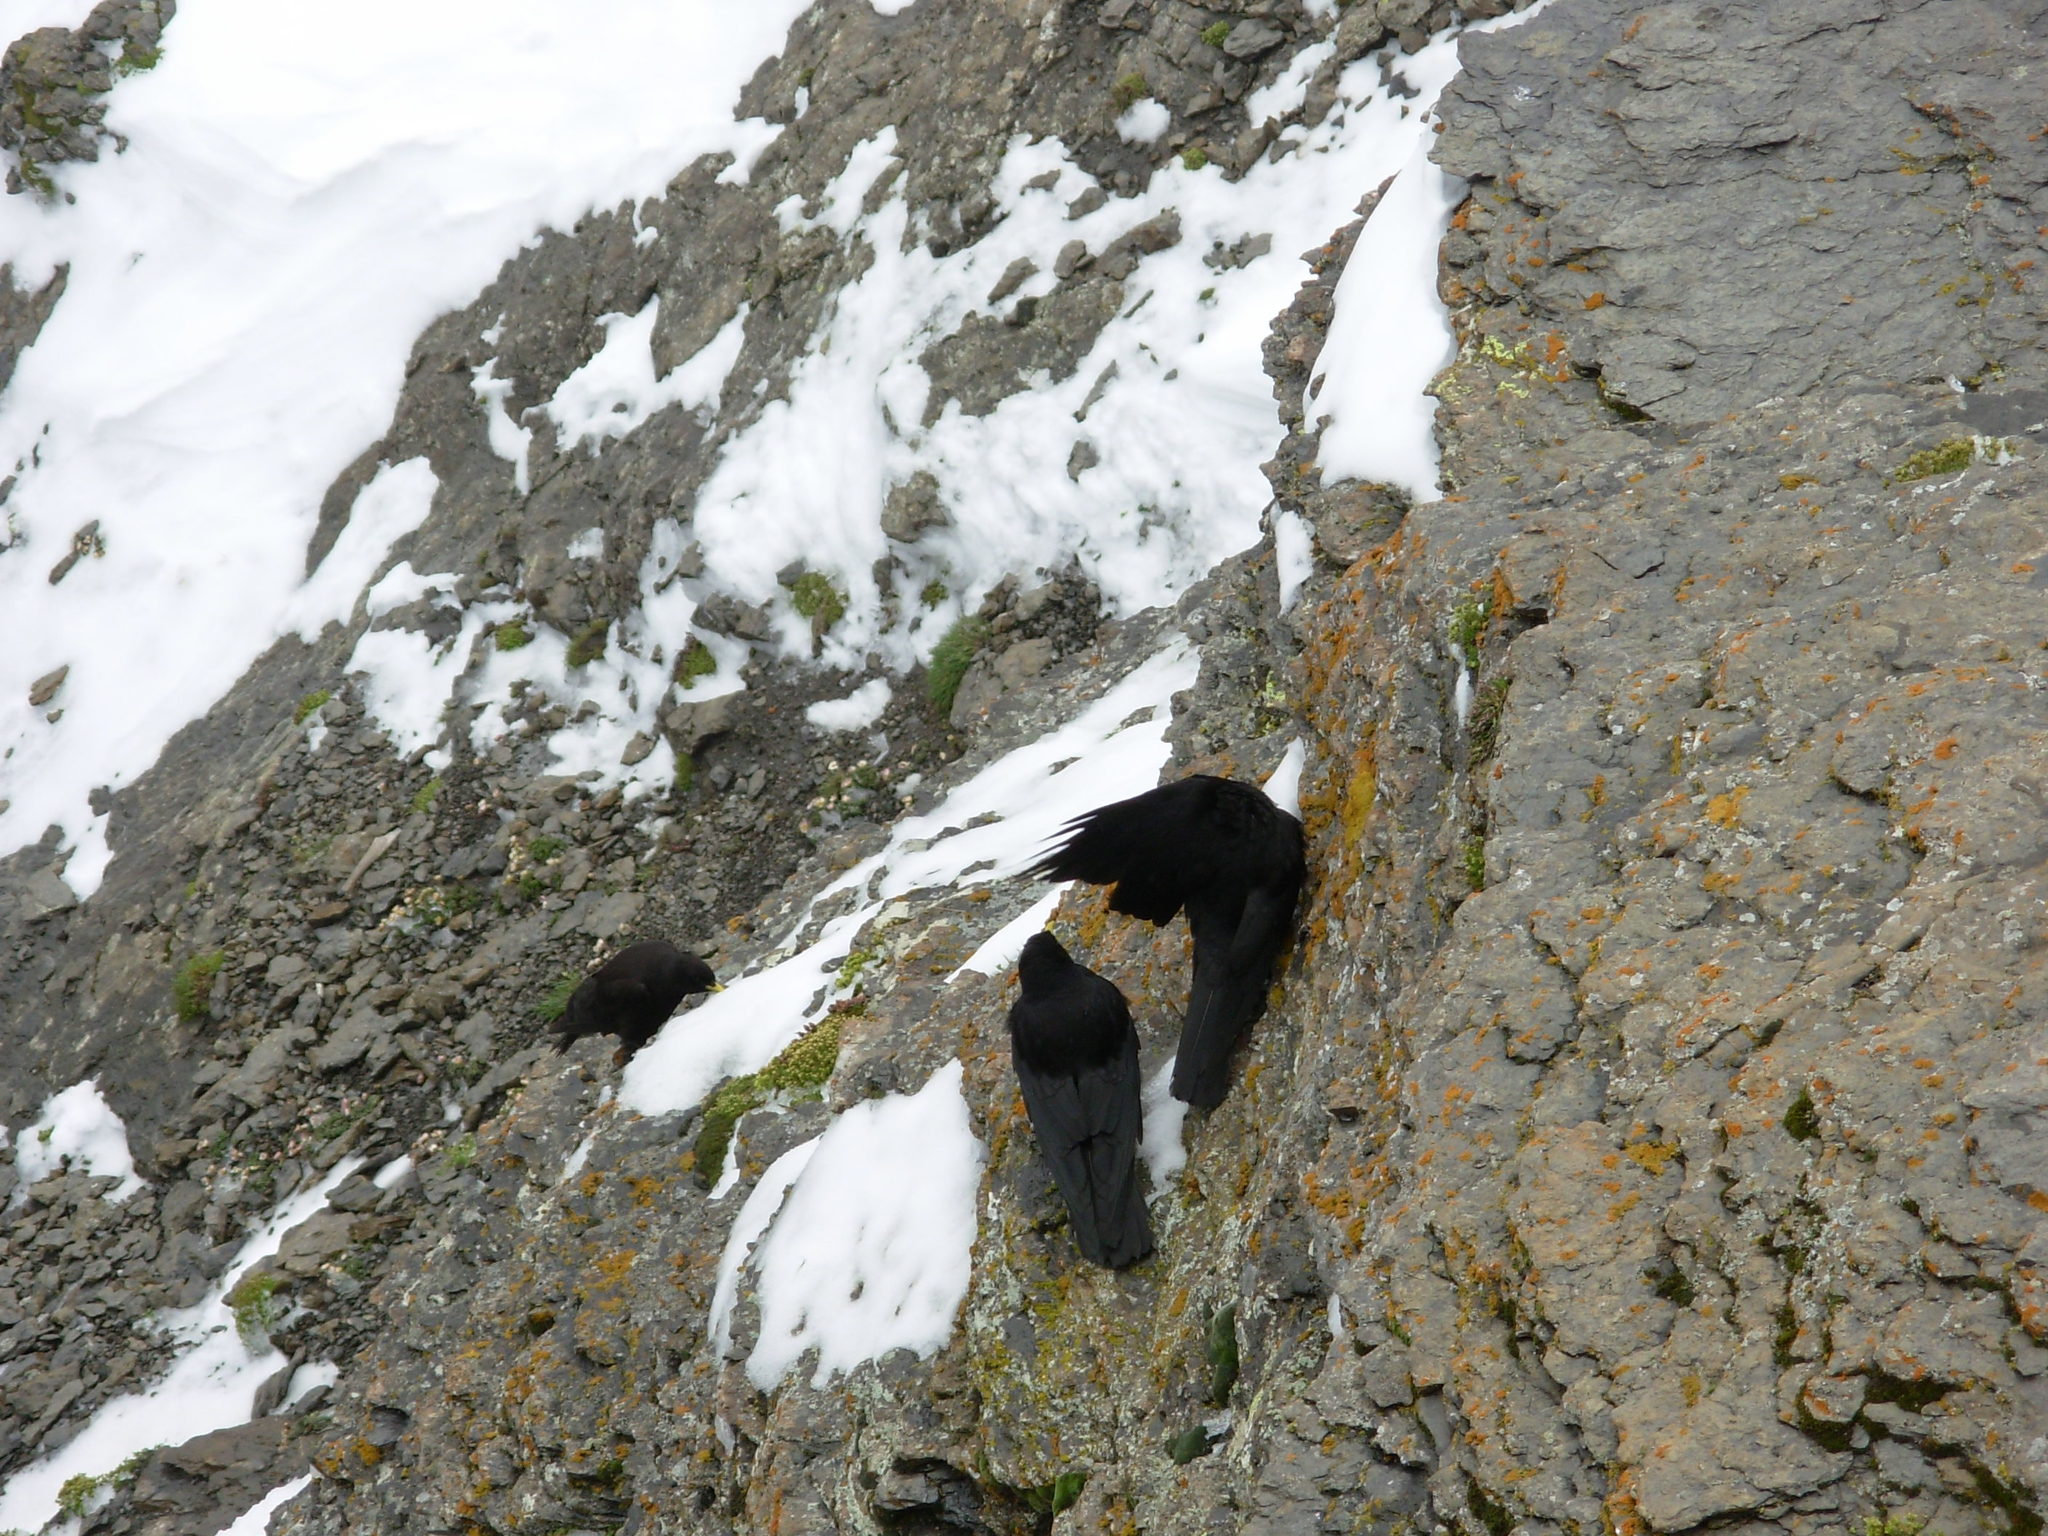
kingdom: Animalia
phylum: Chordata
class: Aves
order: Passeriformes
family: Corvidae
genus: Pyrrhocorax
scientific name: Pyrrhocorax graculus
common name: Alpine chough
